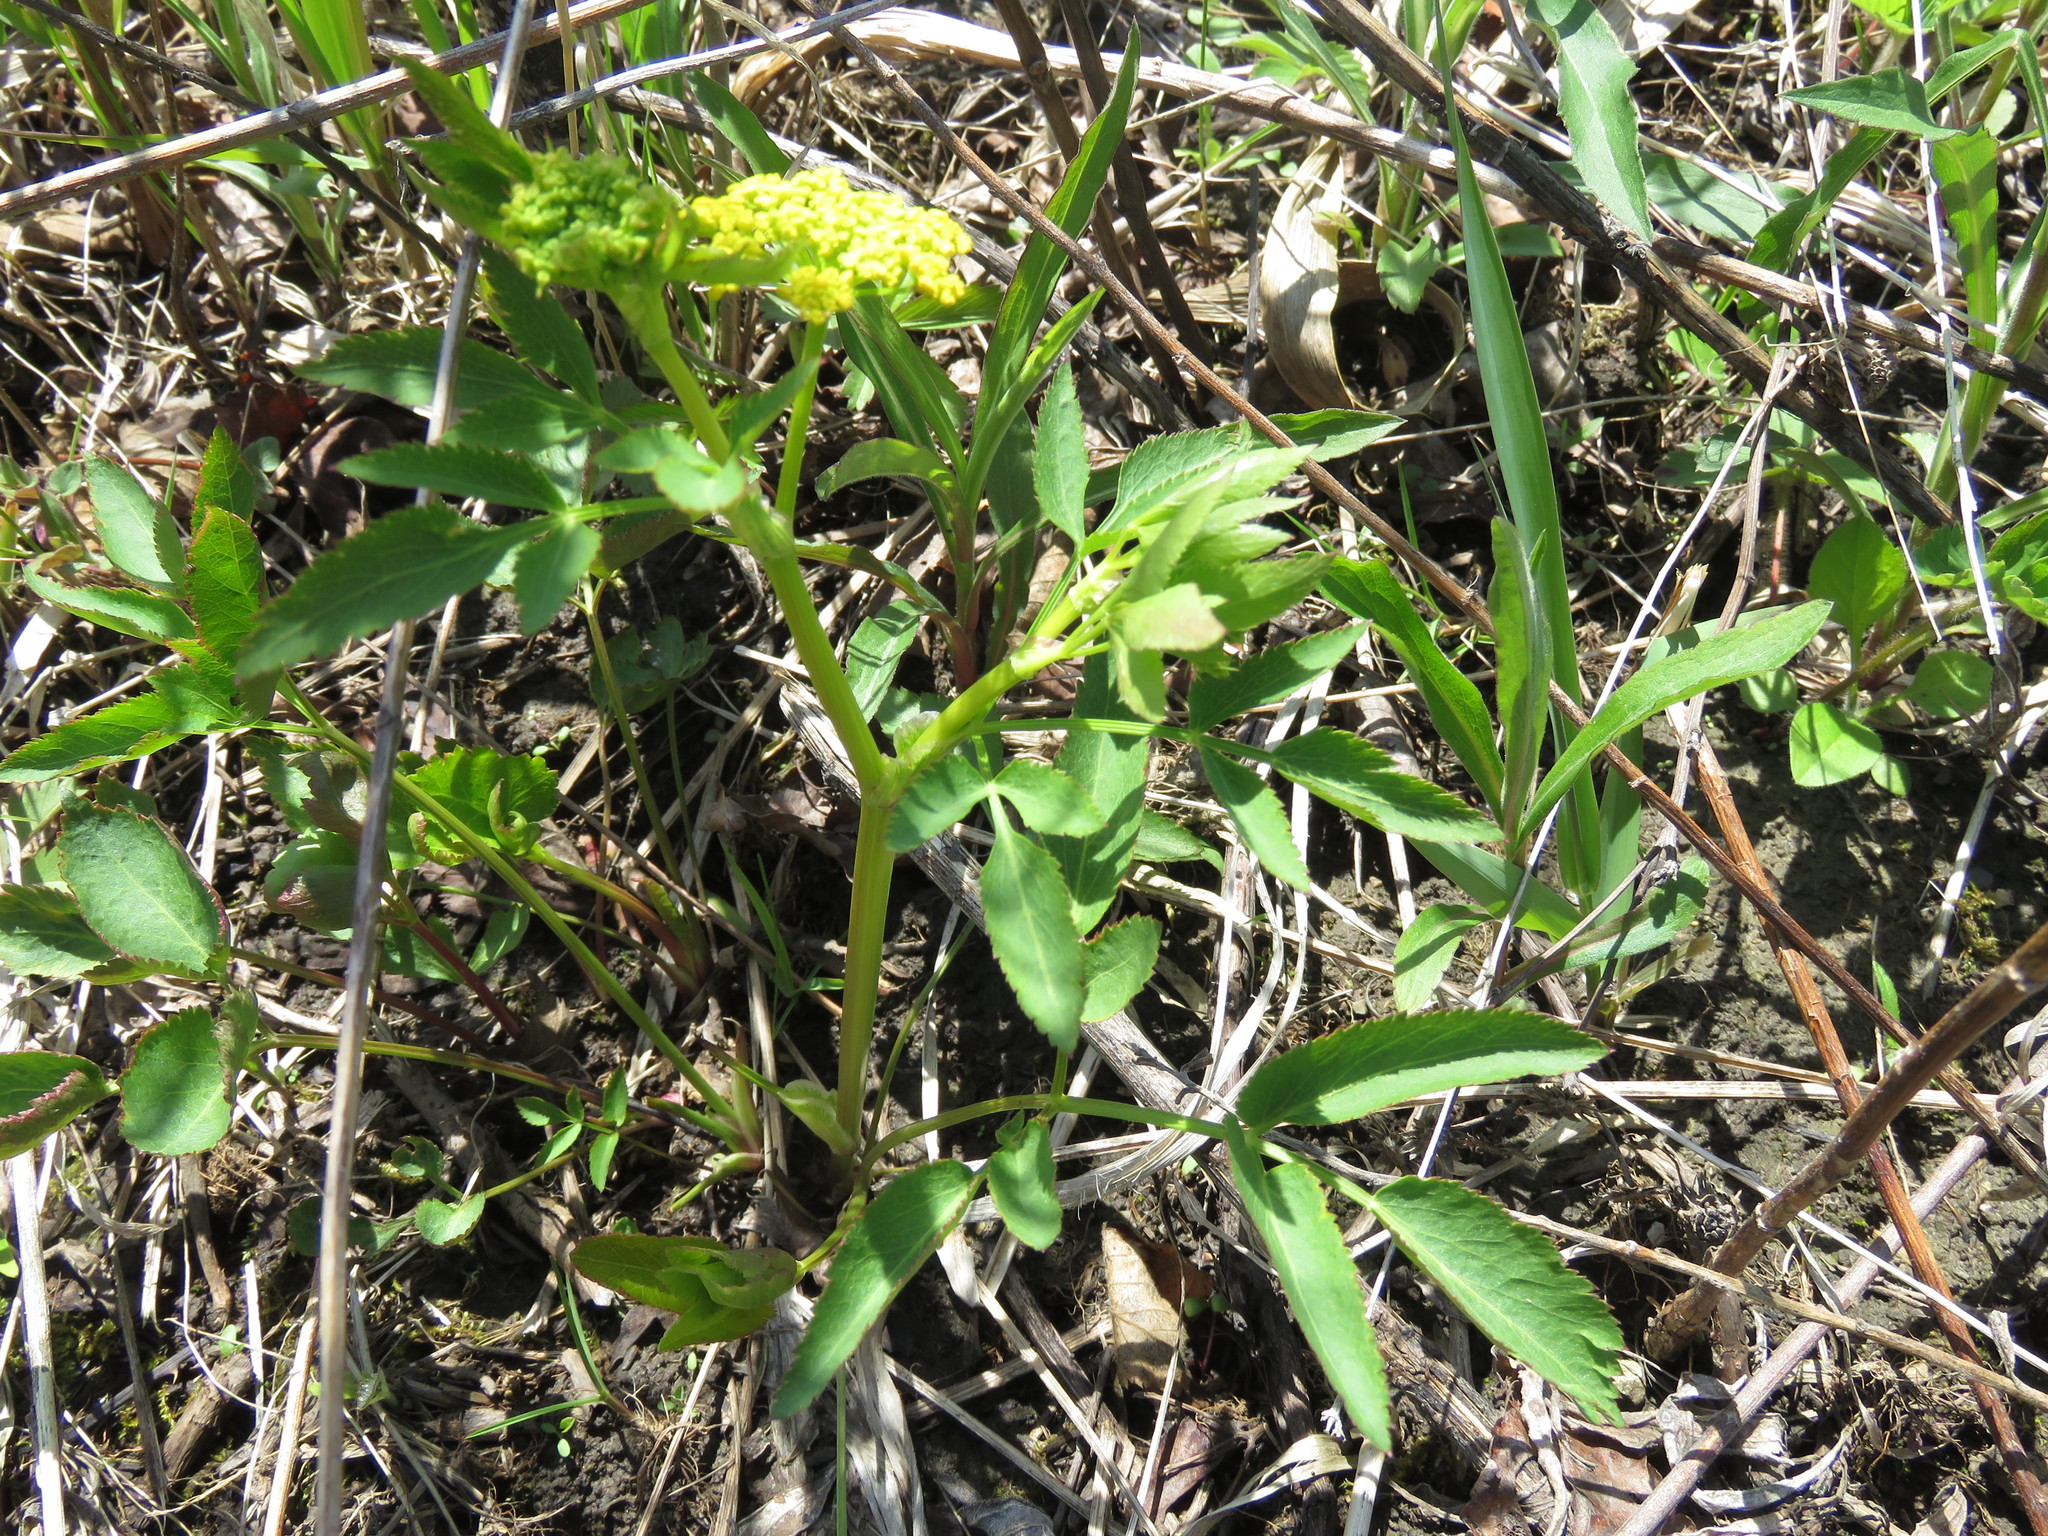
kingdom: Plantae
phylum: Tracheophyta
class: Magnoliopsida
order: Apiales
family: Apiaceae
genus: Zizia
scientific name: Zizia aurea
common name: Golden alexanders
